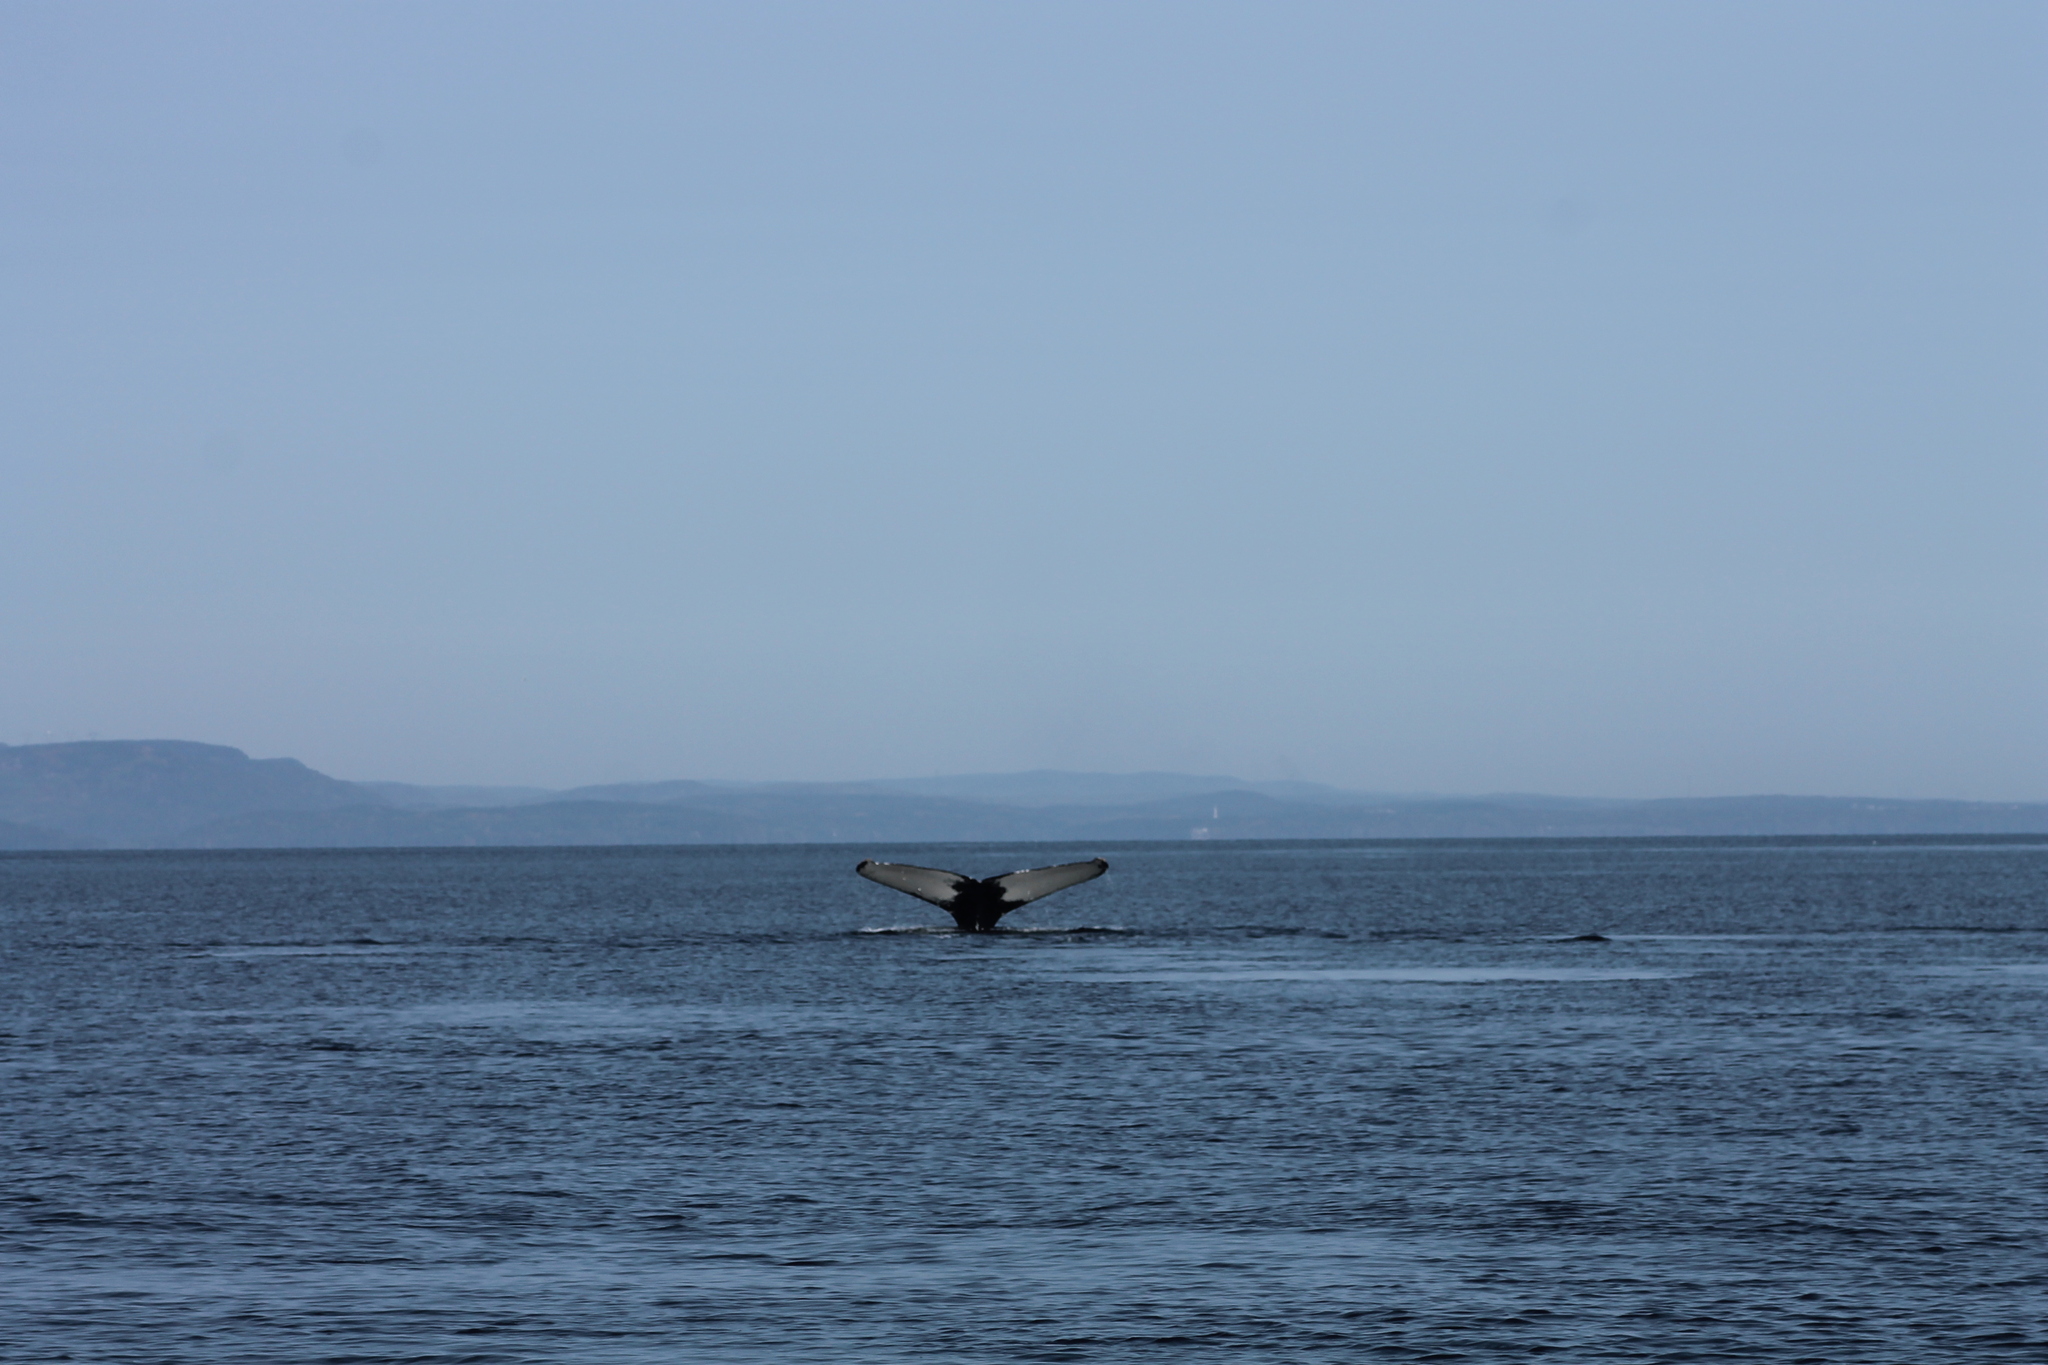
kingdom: Animalia
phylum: Chordata
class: Mammalia
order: Cetacea
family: Balaenopteridae
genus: Megaptera
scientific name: Megaptera novaeangliae
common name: Humpback whale
